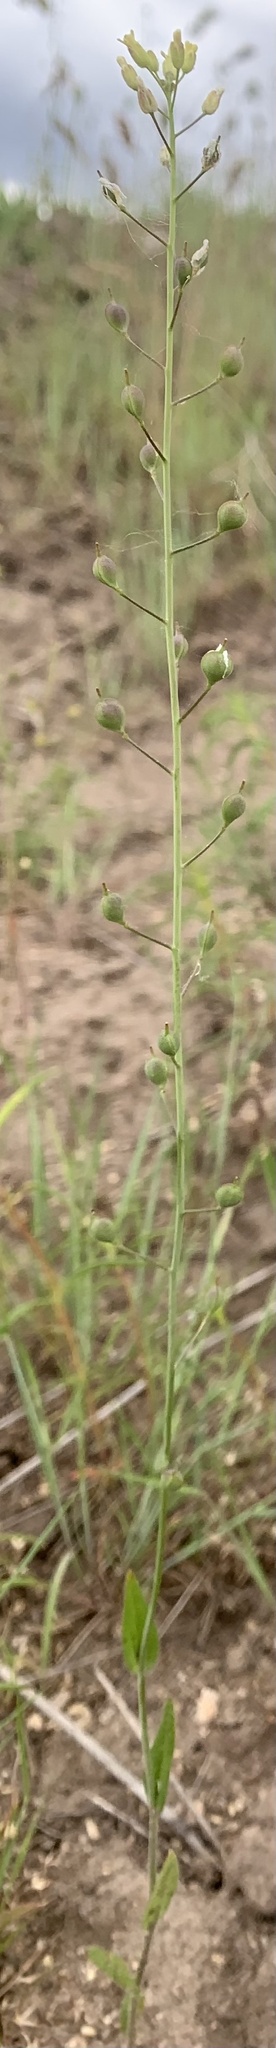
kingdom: Plantae
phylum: Tracheophyta
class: Magnoliopsida
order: Brassicales
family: Brassicaceae
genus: Camelina
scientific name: Camelina microcarpa
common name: Lesser gold-of-pleasure
